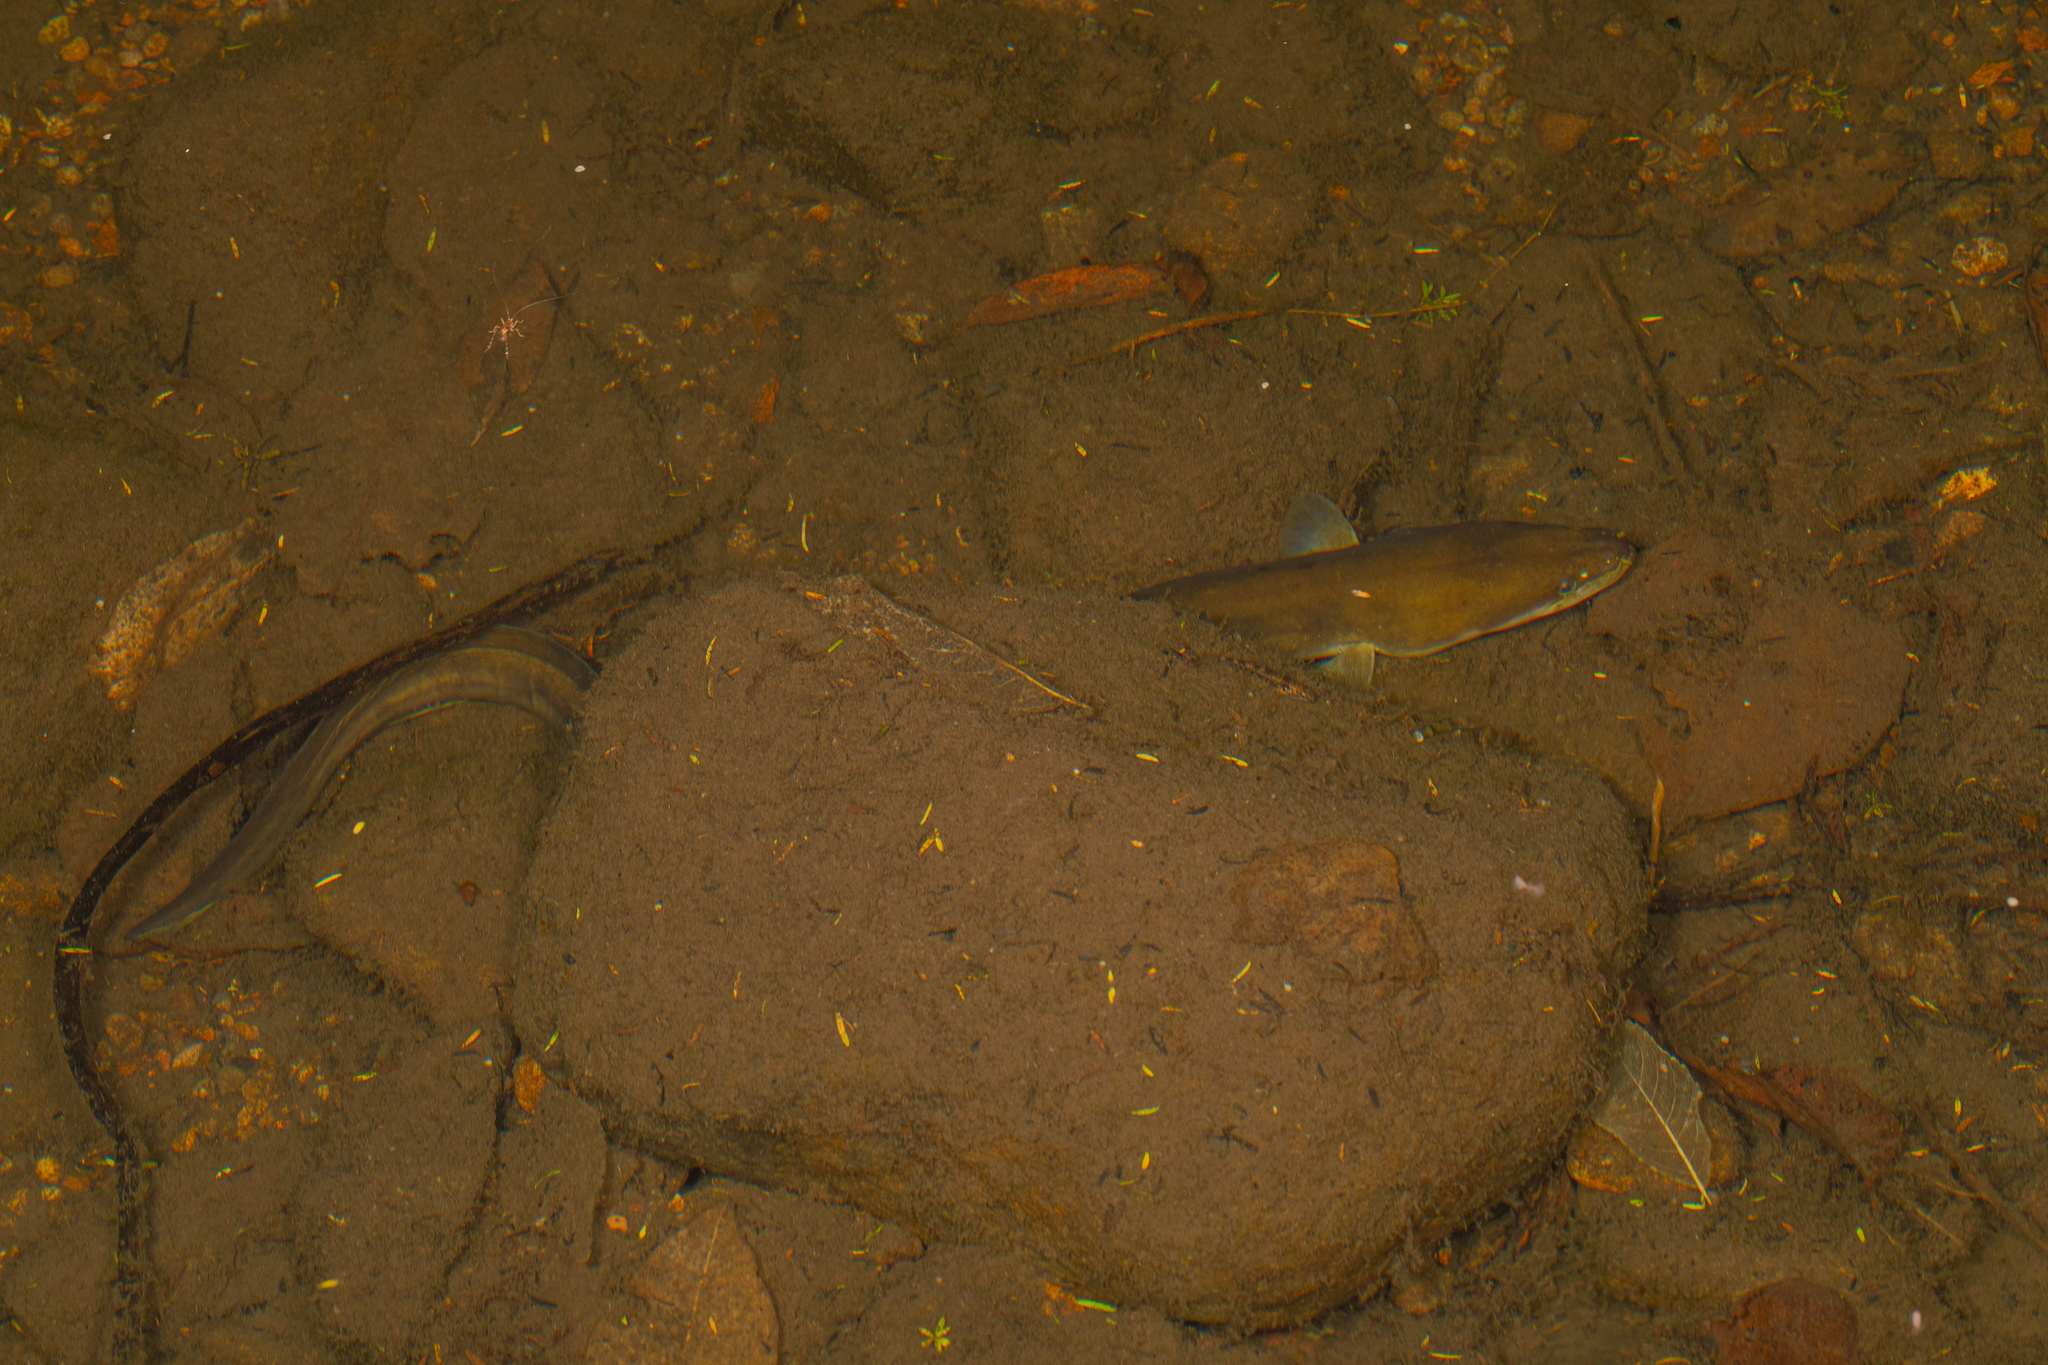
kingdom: Animalia
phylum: Chordata
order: Anguilliformes
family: Anguillidae
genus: Anguilla
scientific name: Anguilla dieffenbachii
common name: New zealand longfin eel
